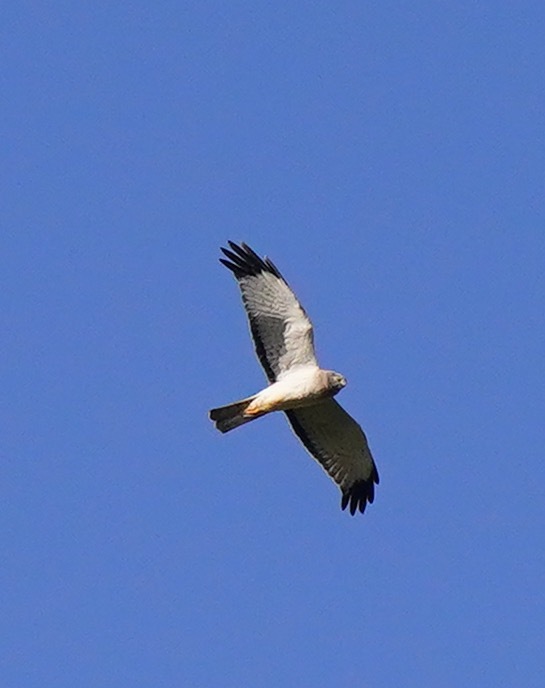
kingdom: Animalia
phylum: Chordata
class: Aves
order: Accipitriformes
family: Accipitridae
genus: Circus
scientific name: Circus cyaneus
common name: Hen harrier
